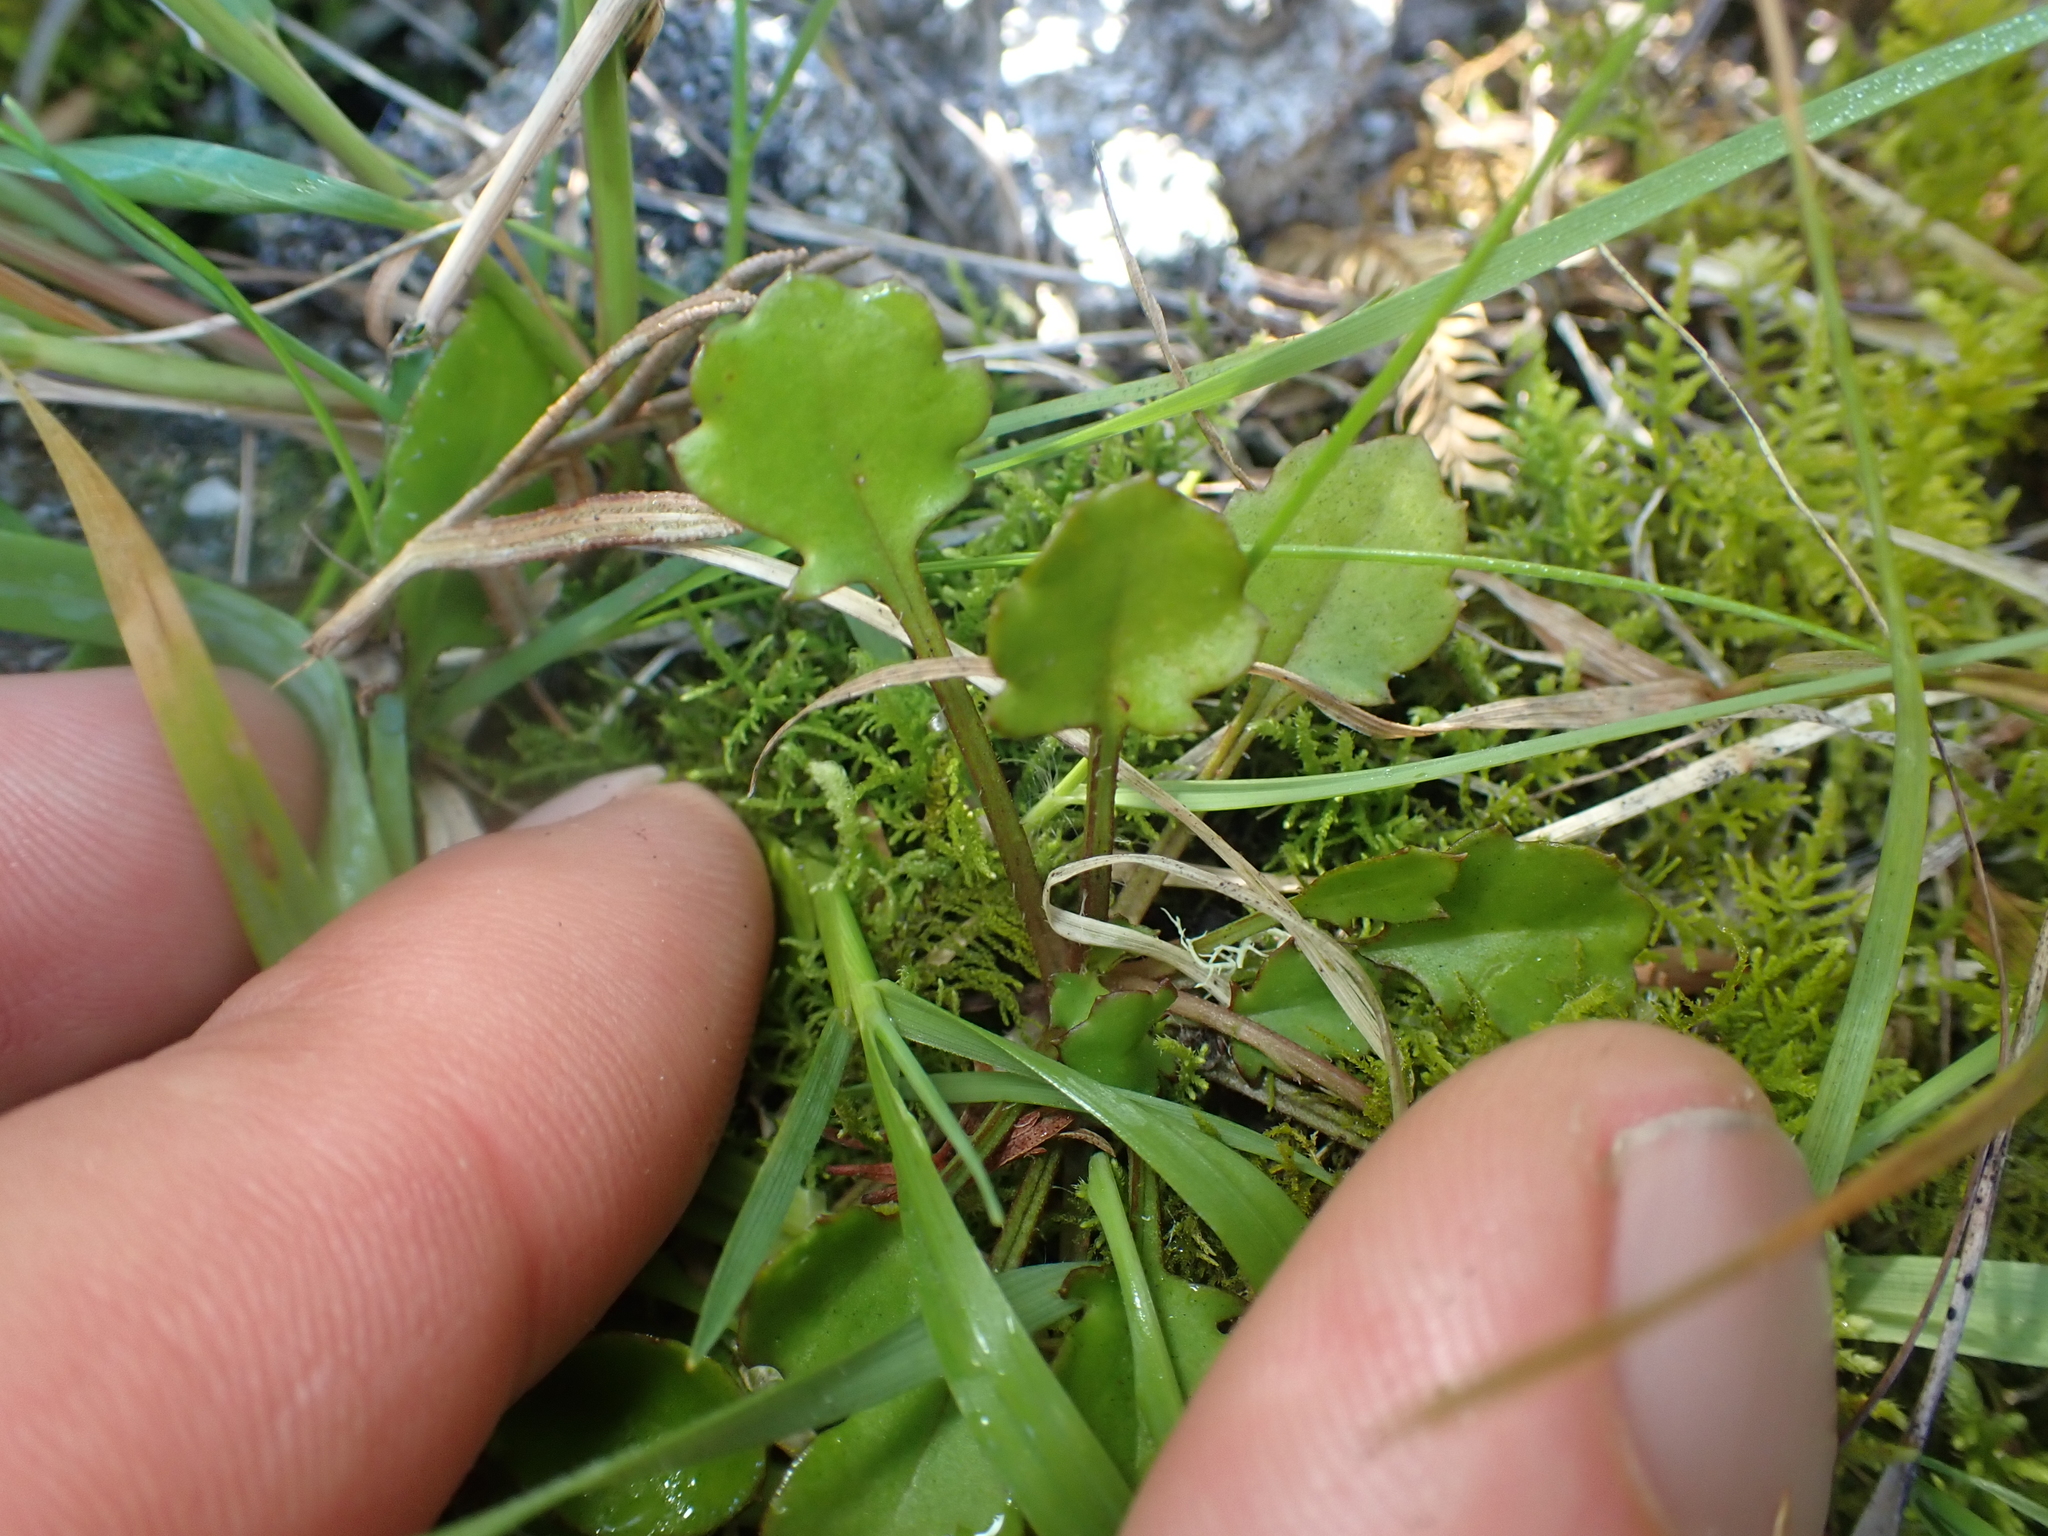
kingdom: Plantae
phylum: Tracheophyta
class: Magnoliopsida
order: Asterales
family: Asteraceae
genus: Lagenophora
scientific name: Lagenophora pumila
